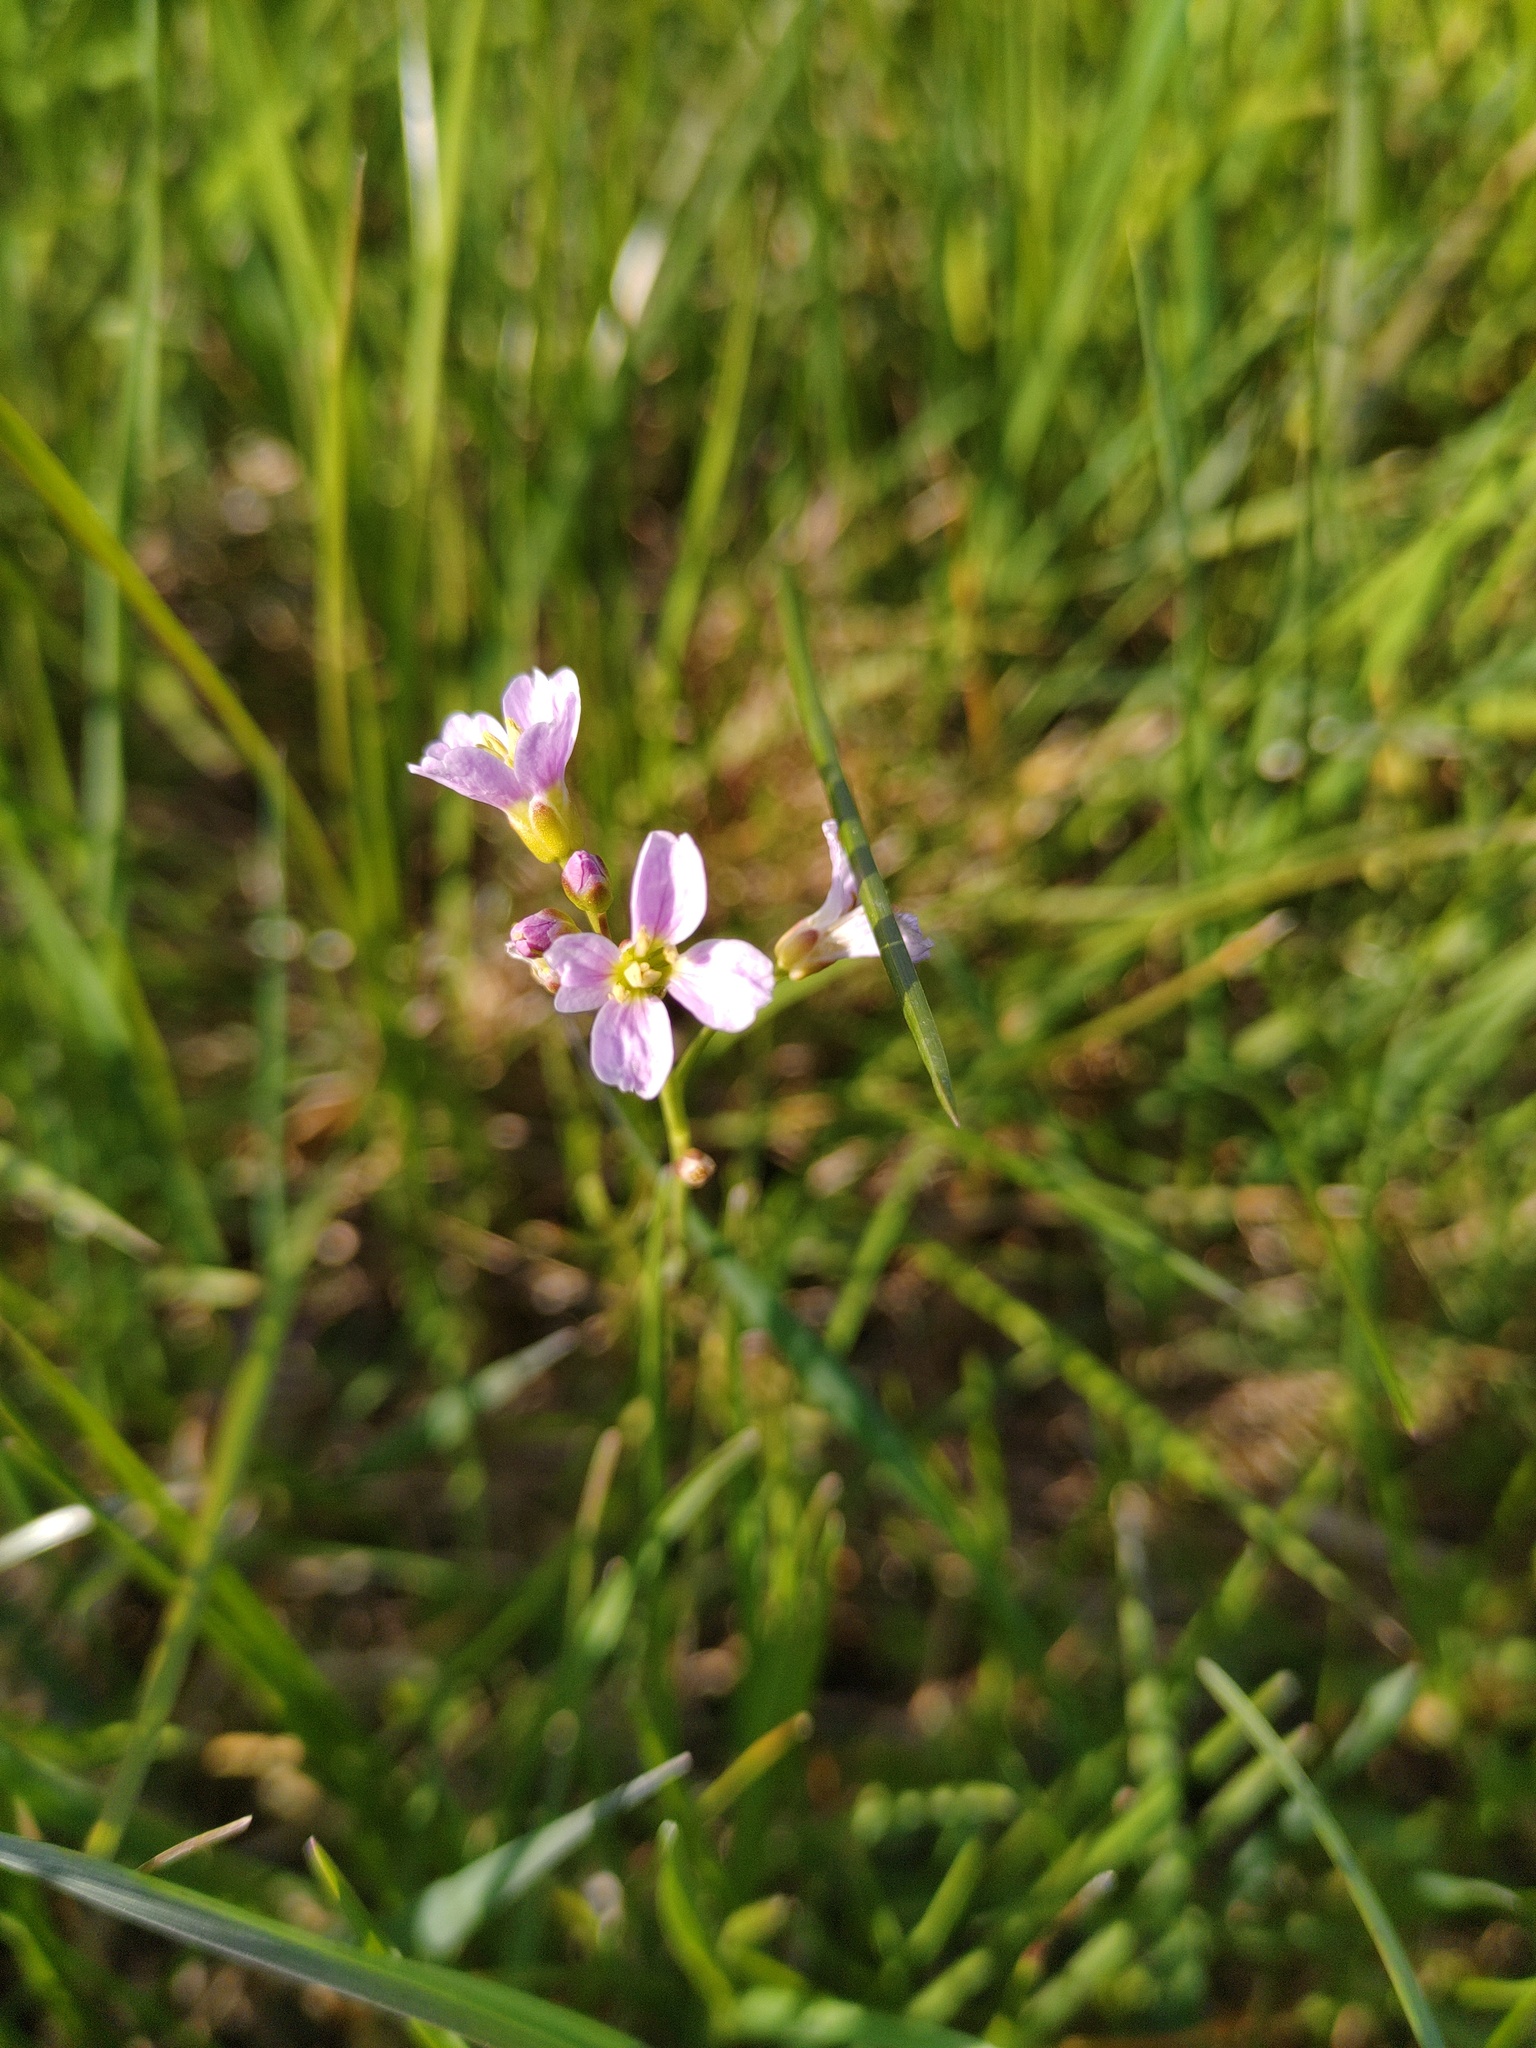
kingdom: Plantae
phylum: Tracheophyta
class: Magnoliopsida
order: Brassicales
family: Brassicaceae
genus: Cardamine
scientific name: Cardamine pratensis
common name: Cuckoo flower
